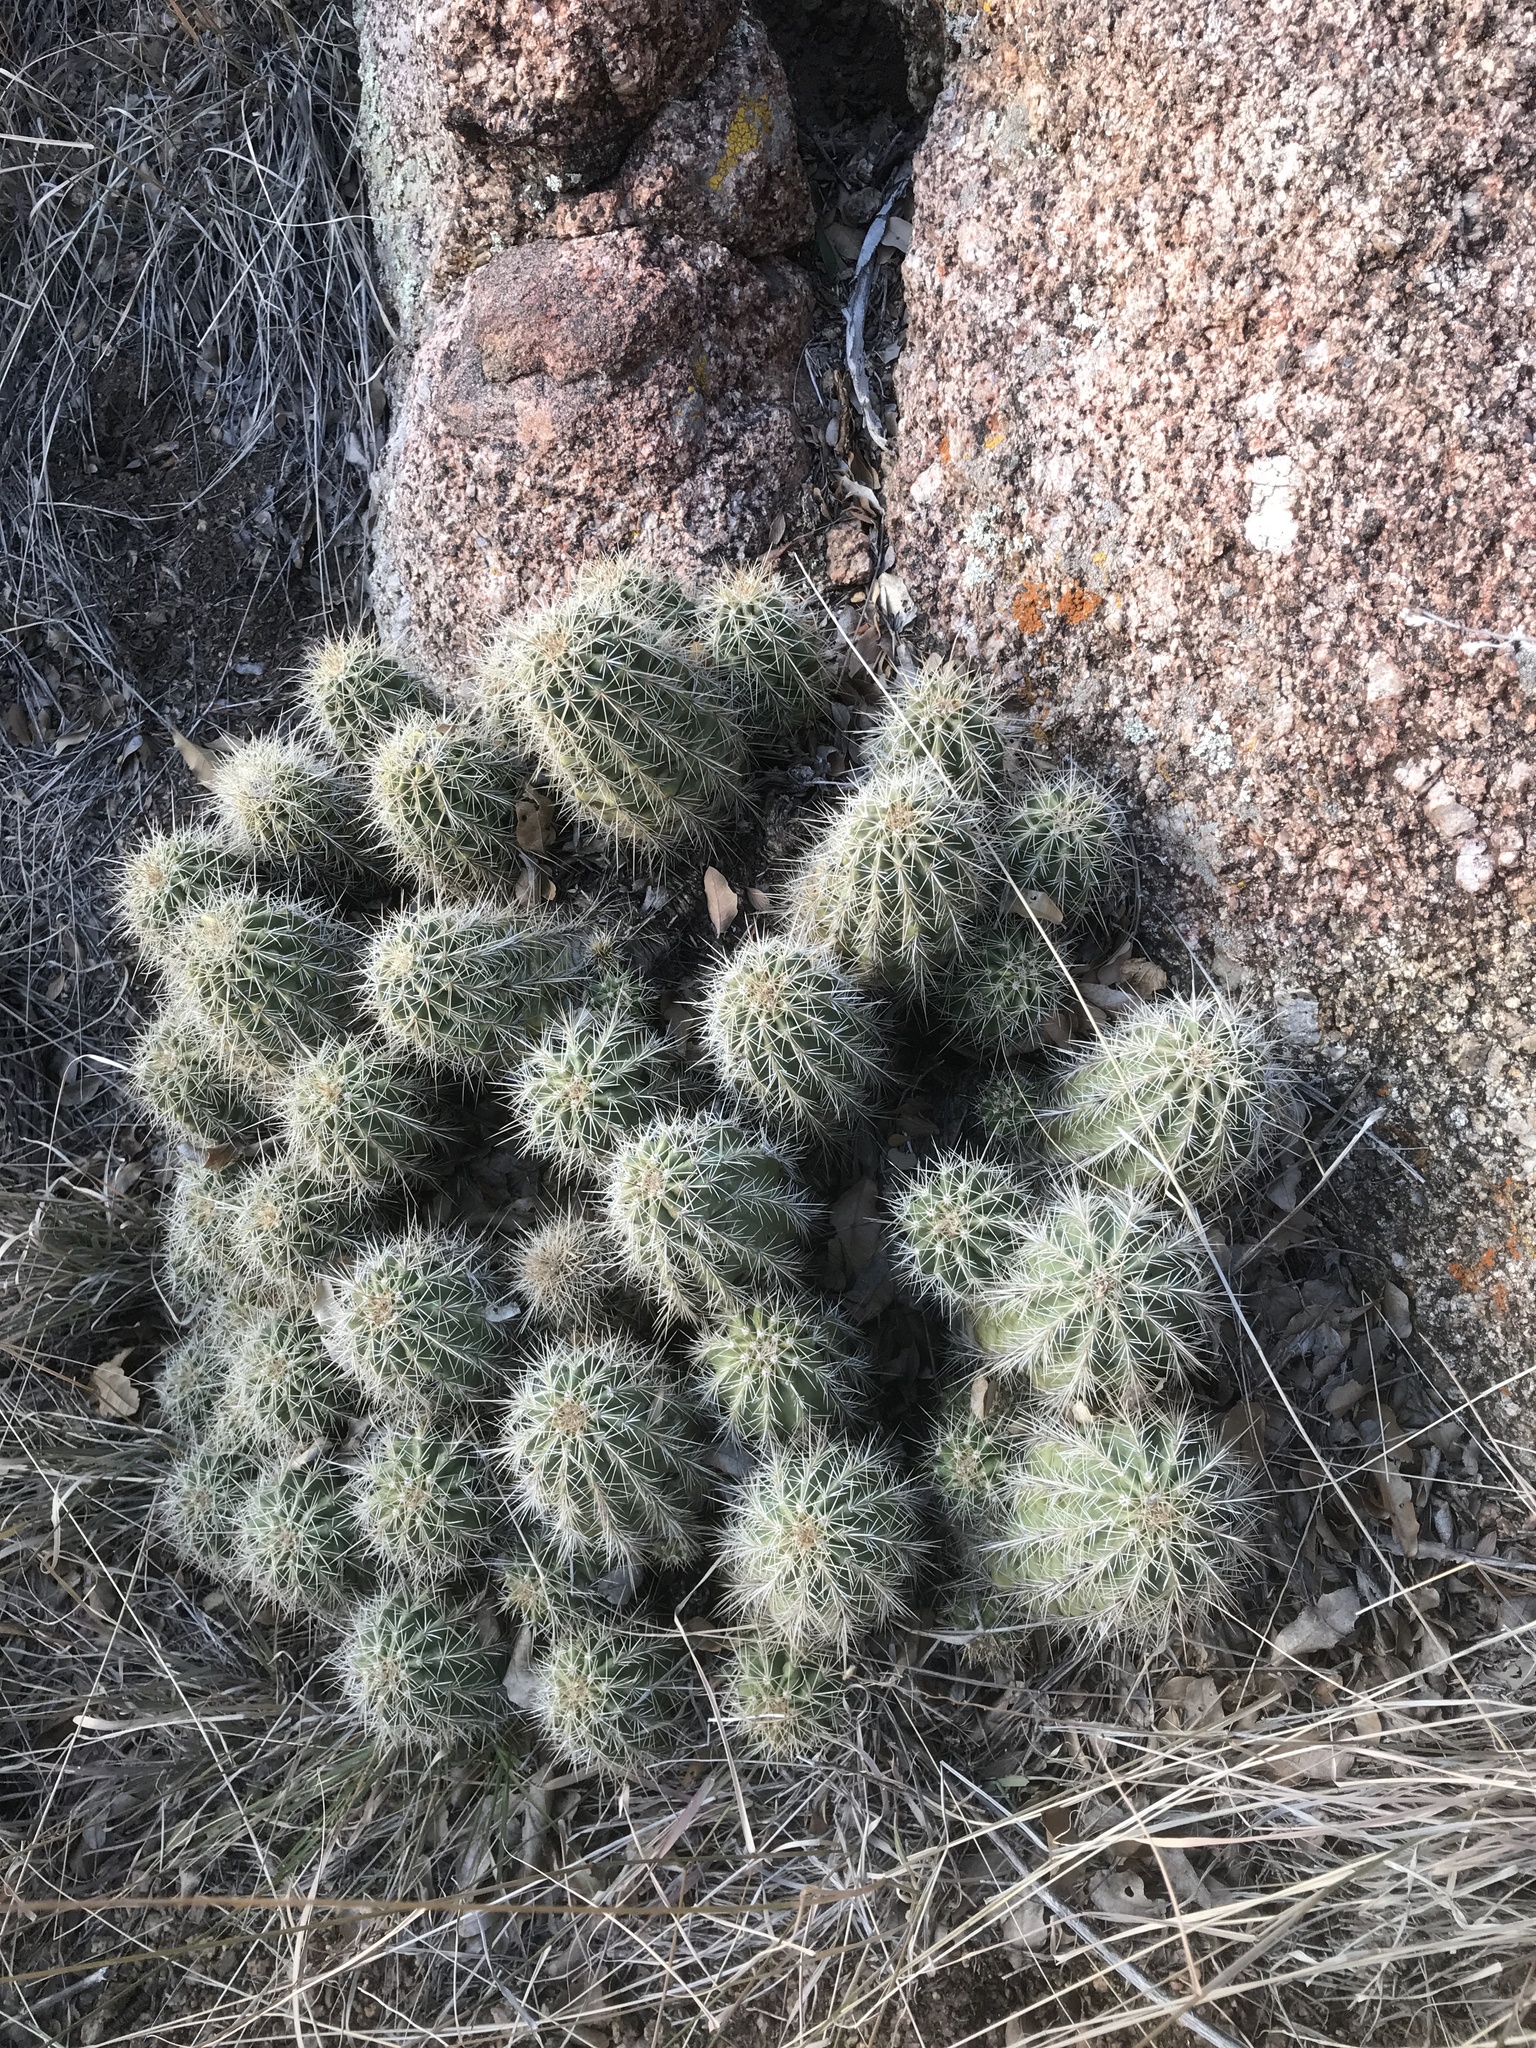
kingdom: Plantae
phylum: Tracheophyta
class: Magnoliopsida
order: Caryophyllales
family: Cactaceae
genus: Echinocereus
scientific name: Echinocereus coccineus
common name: Scarlet hedgehog cactus
